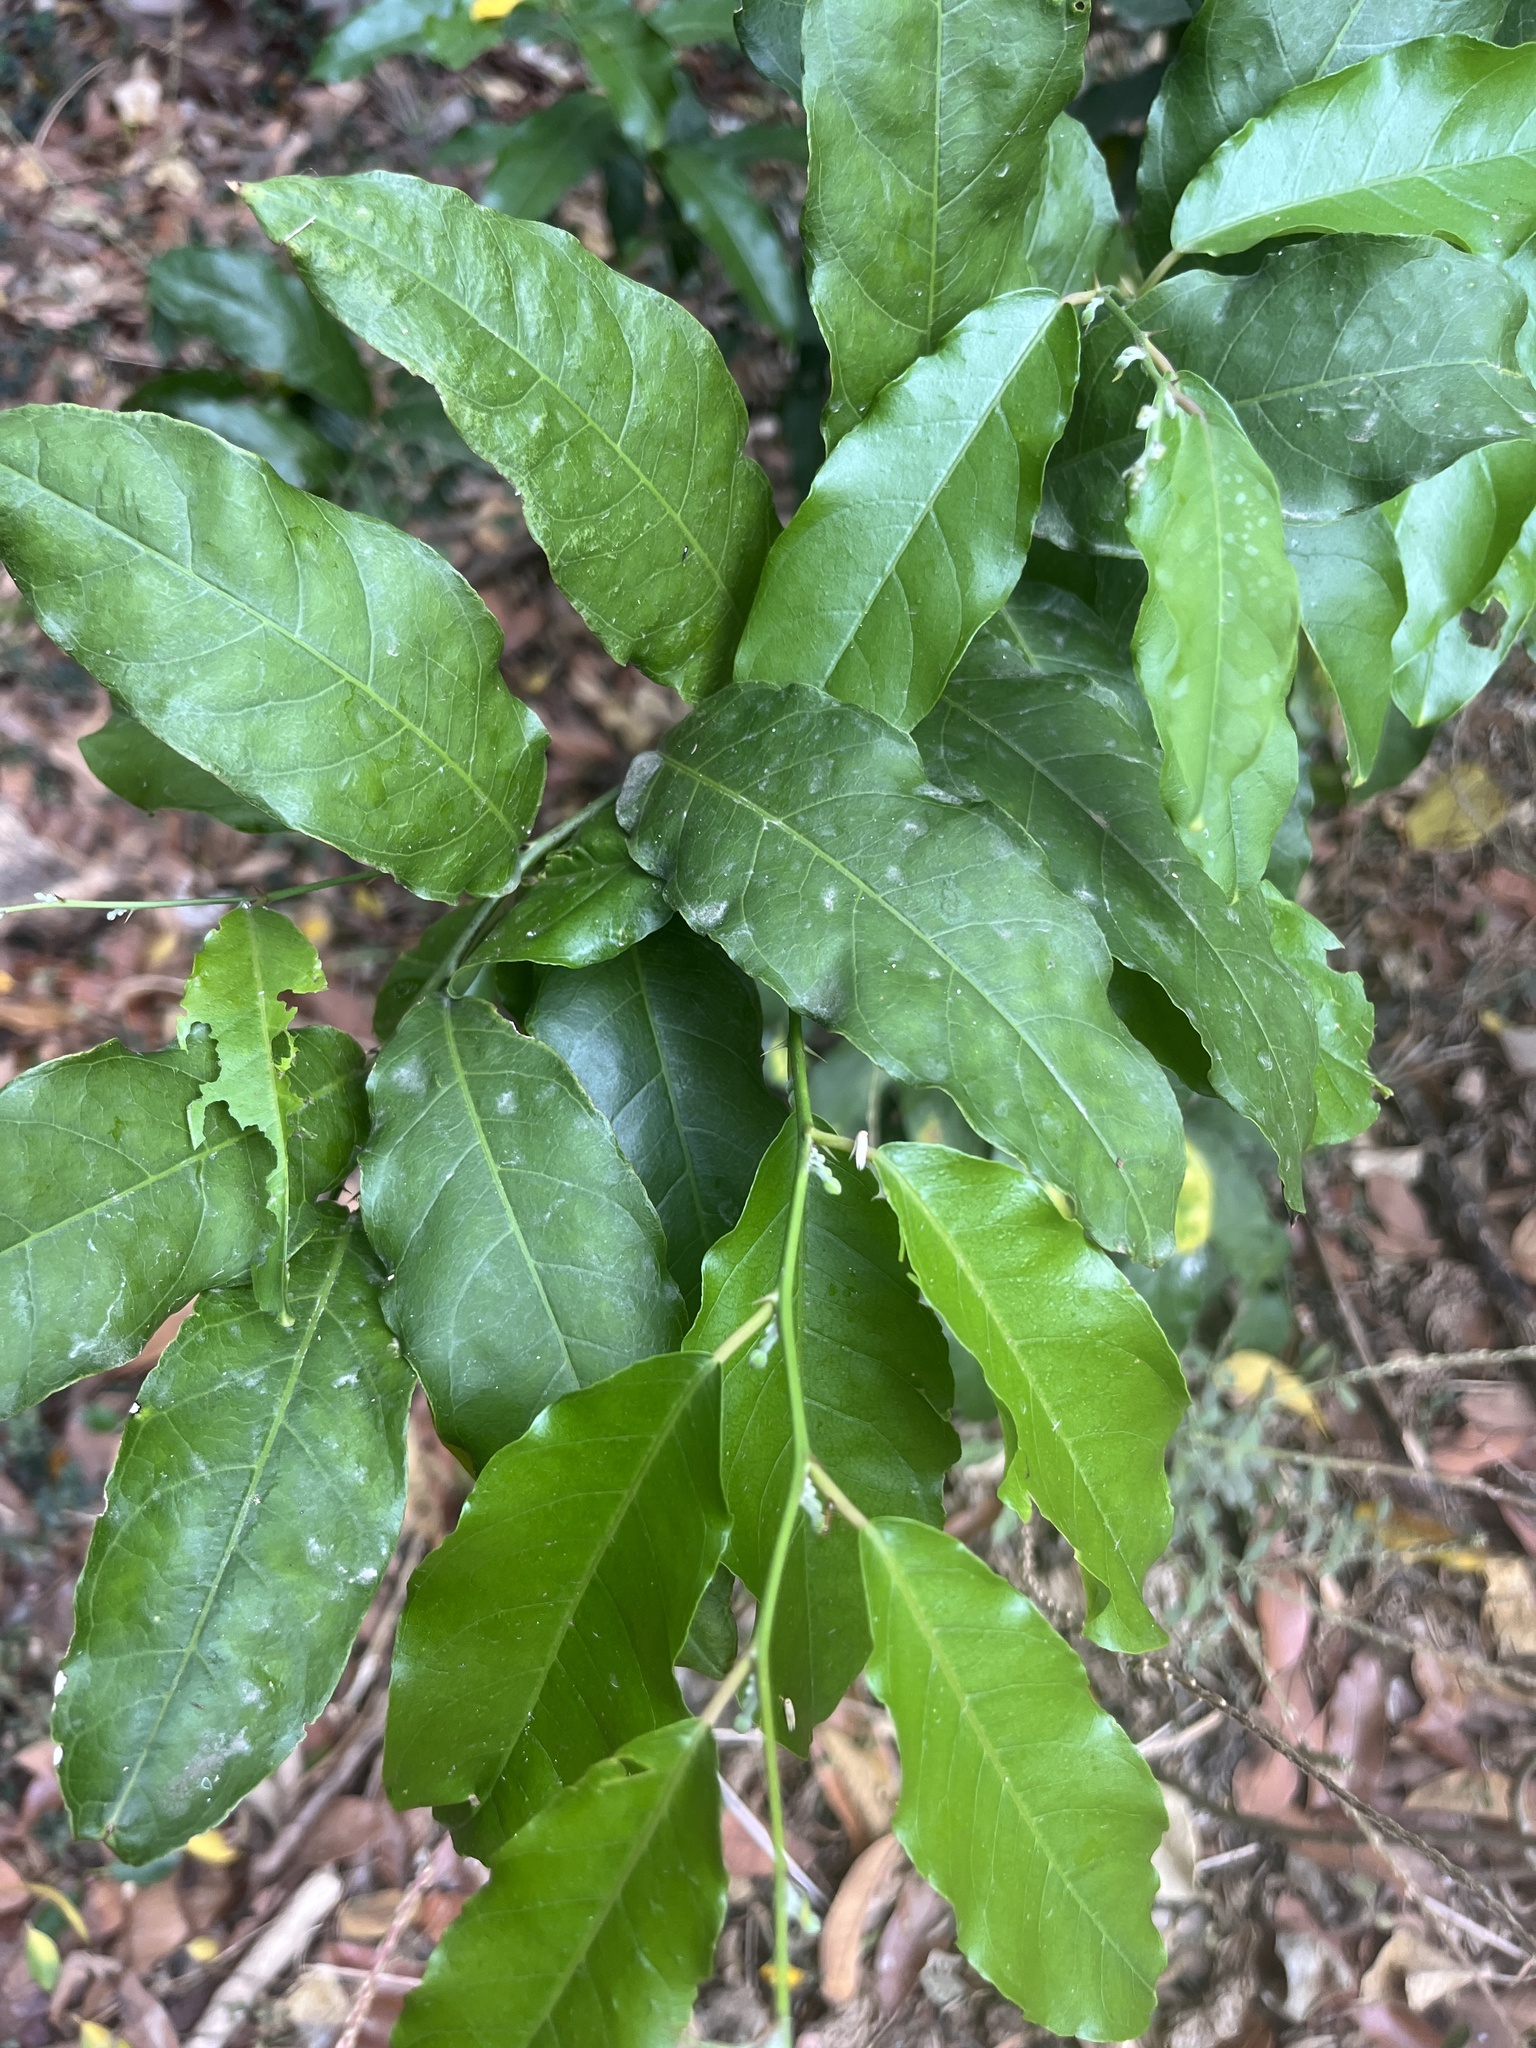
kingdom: Plantae
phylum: Tracheophyta
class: Magnoliopsida
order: Brassicales
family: Capparaceae
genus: Capparis
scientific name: Capparis micracantha
